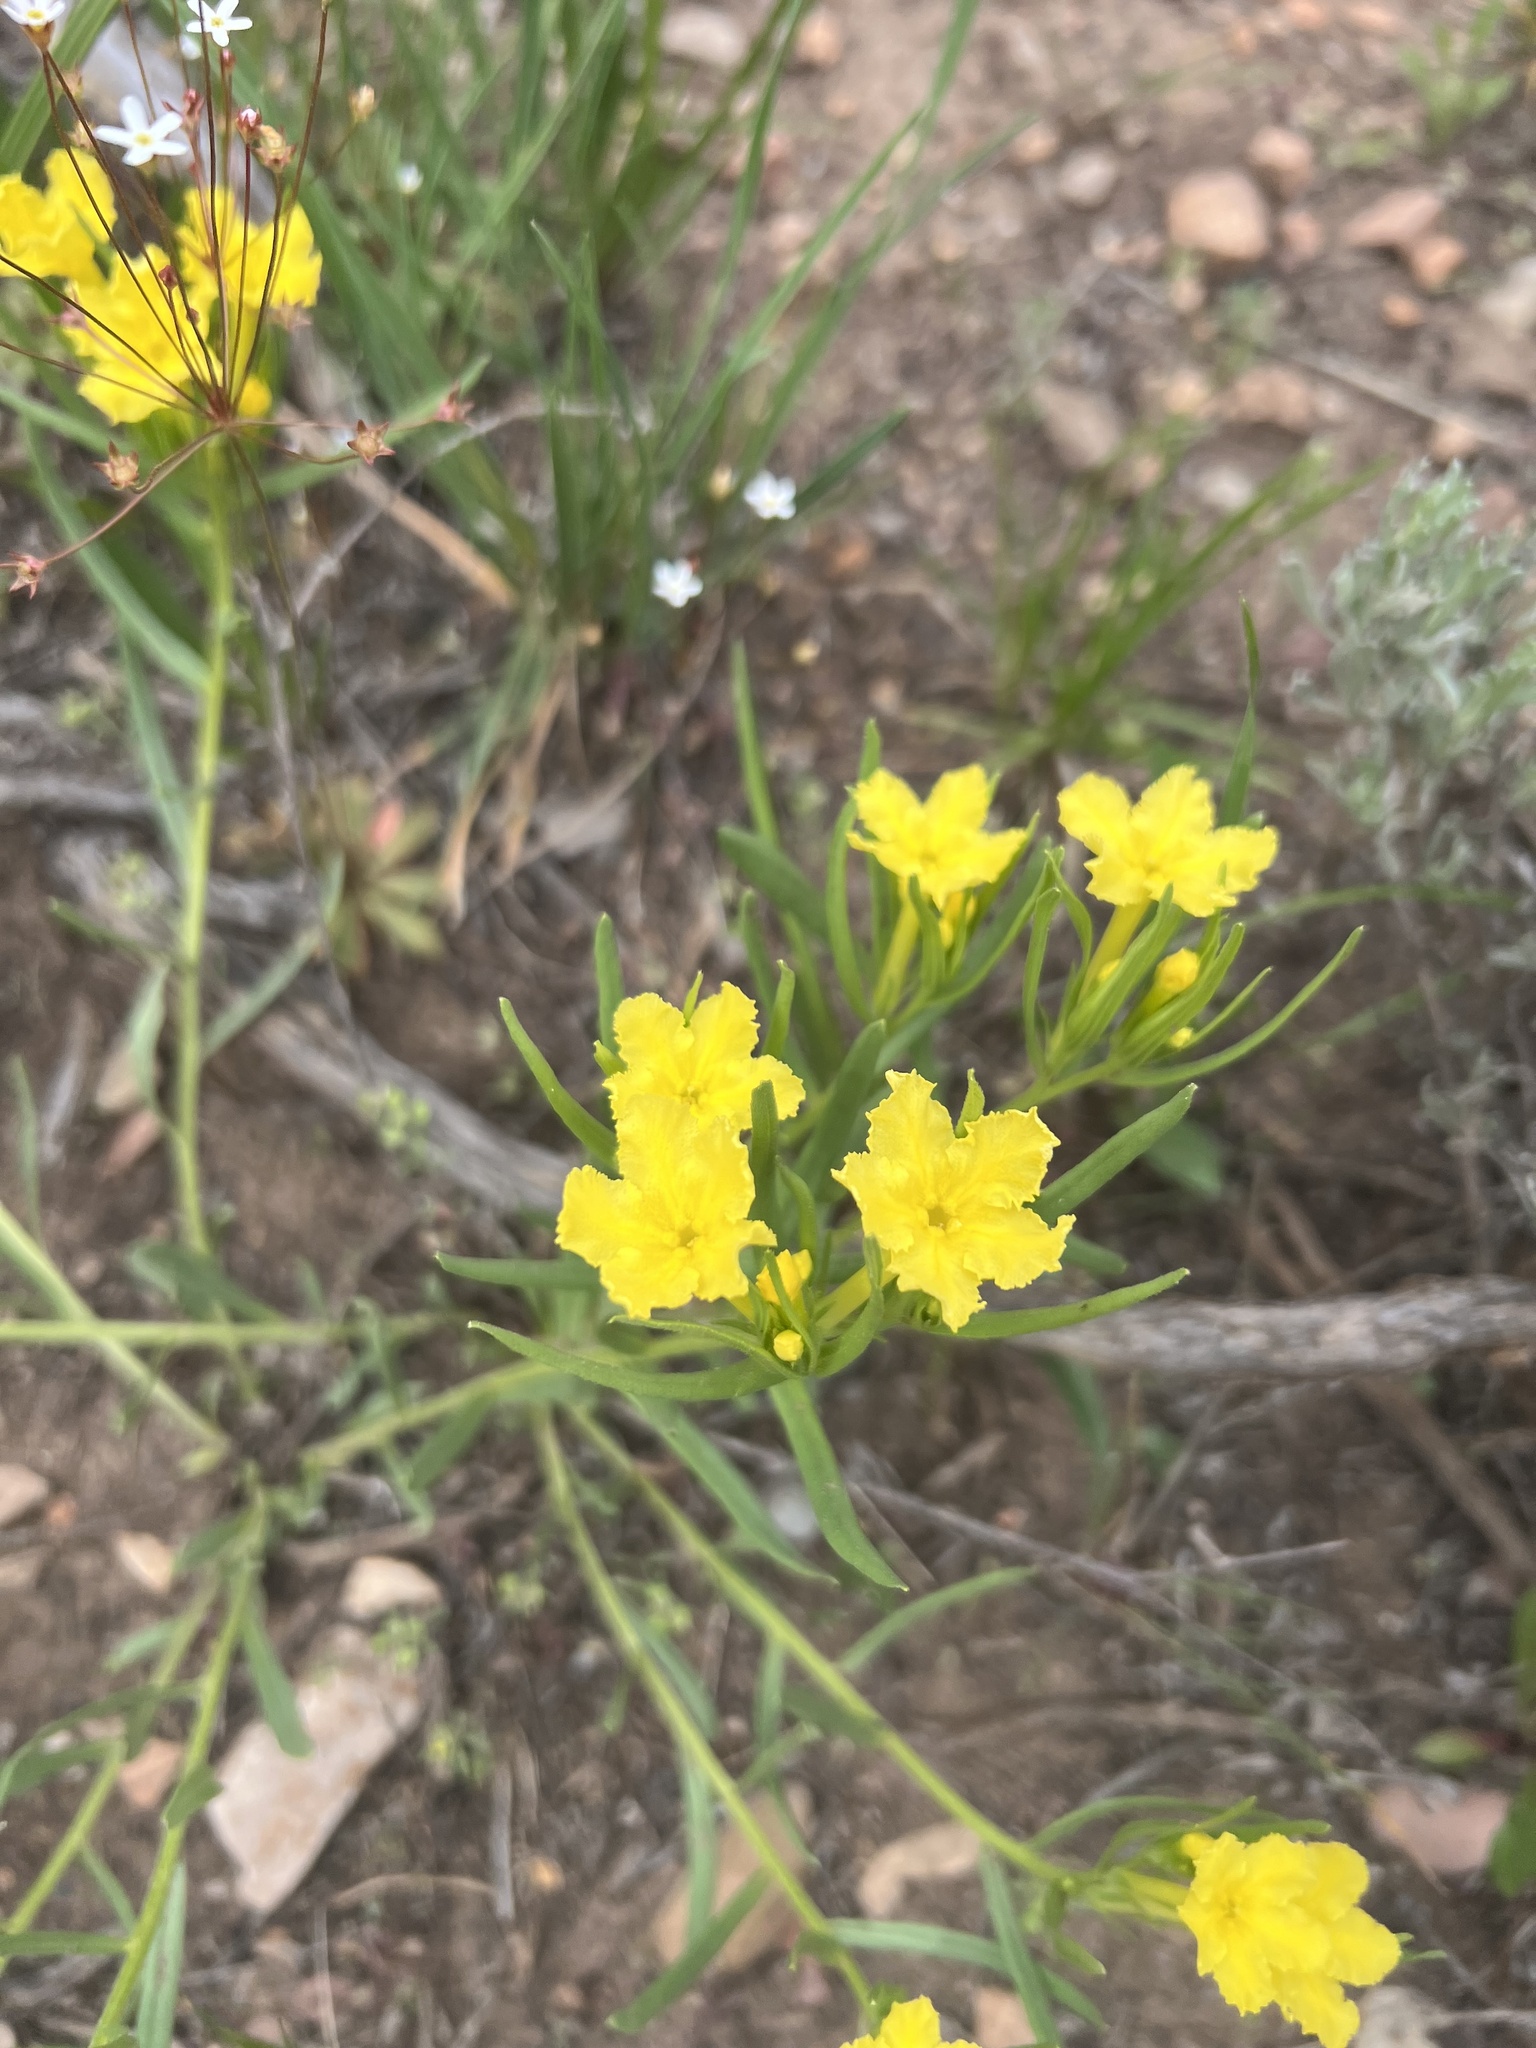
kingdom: Plantae
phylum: Tracheophyta
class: Magnoliopsida
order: Boraginales
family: Boraginaceae
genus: Lithospermum
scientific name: Lithospermum incisum
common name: Fringed gromwell
